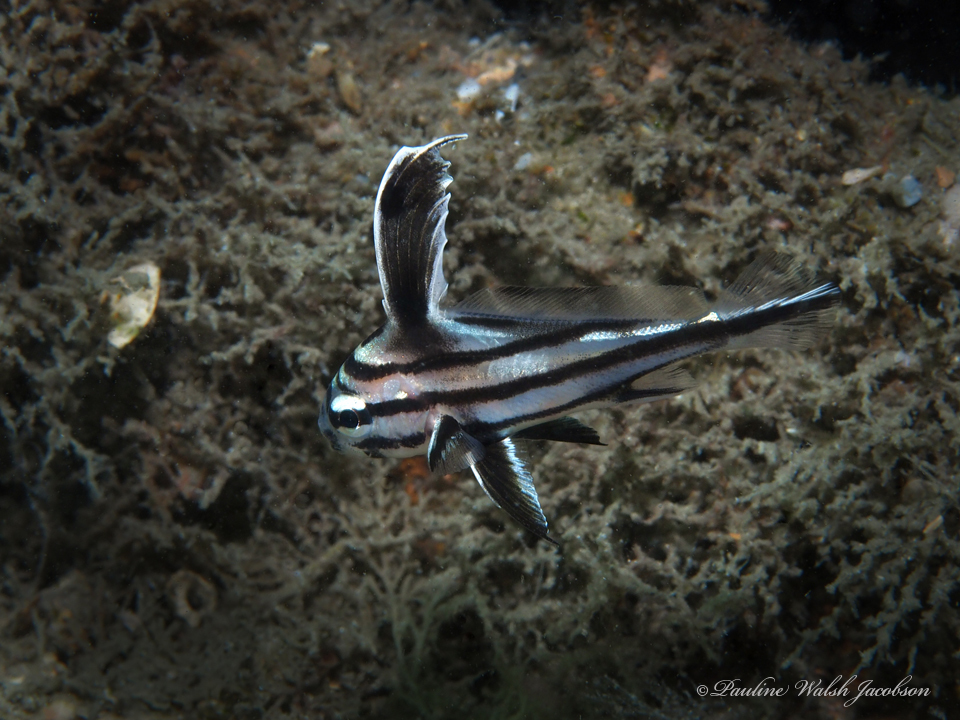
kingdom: Animalia
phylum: Chordata
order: Perciformes
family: Sciaenidae
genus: Pareques
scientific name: Pareques acuminatus
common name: High-hat
